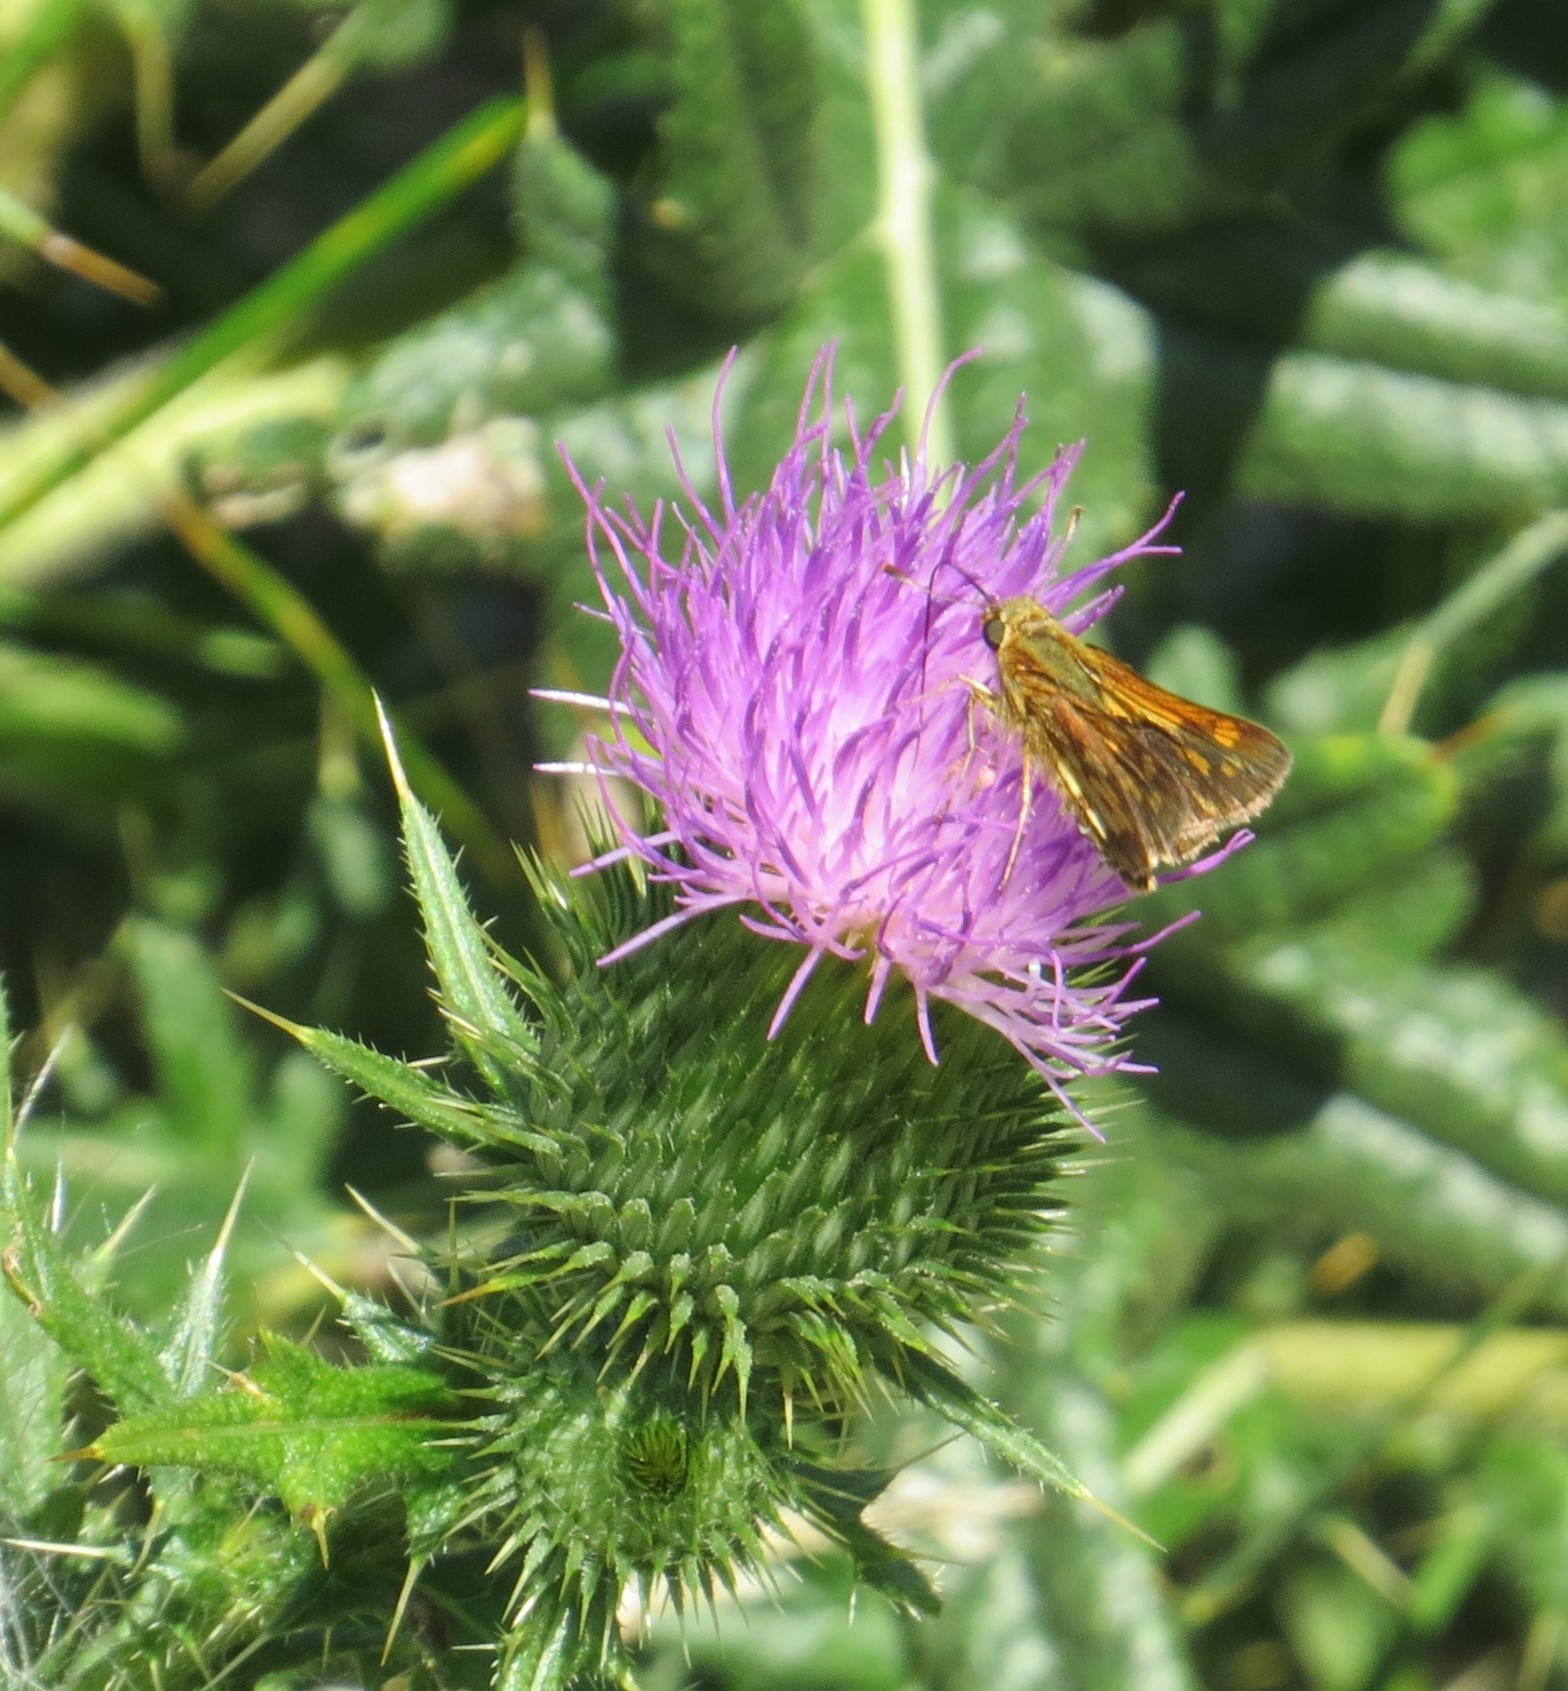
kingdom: Animalia
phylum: Arthropoda
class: Insecta
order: Lepidoptera
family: Hesperiidae
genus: Polites
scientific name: Polites coras
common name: Peck's skipper
